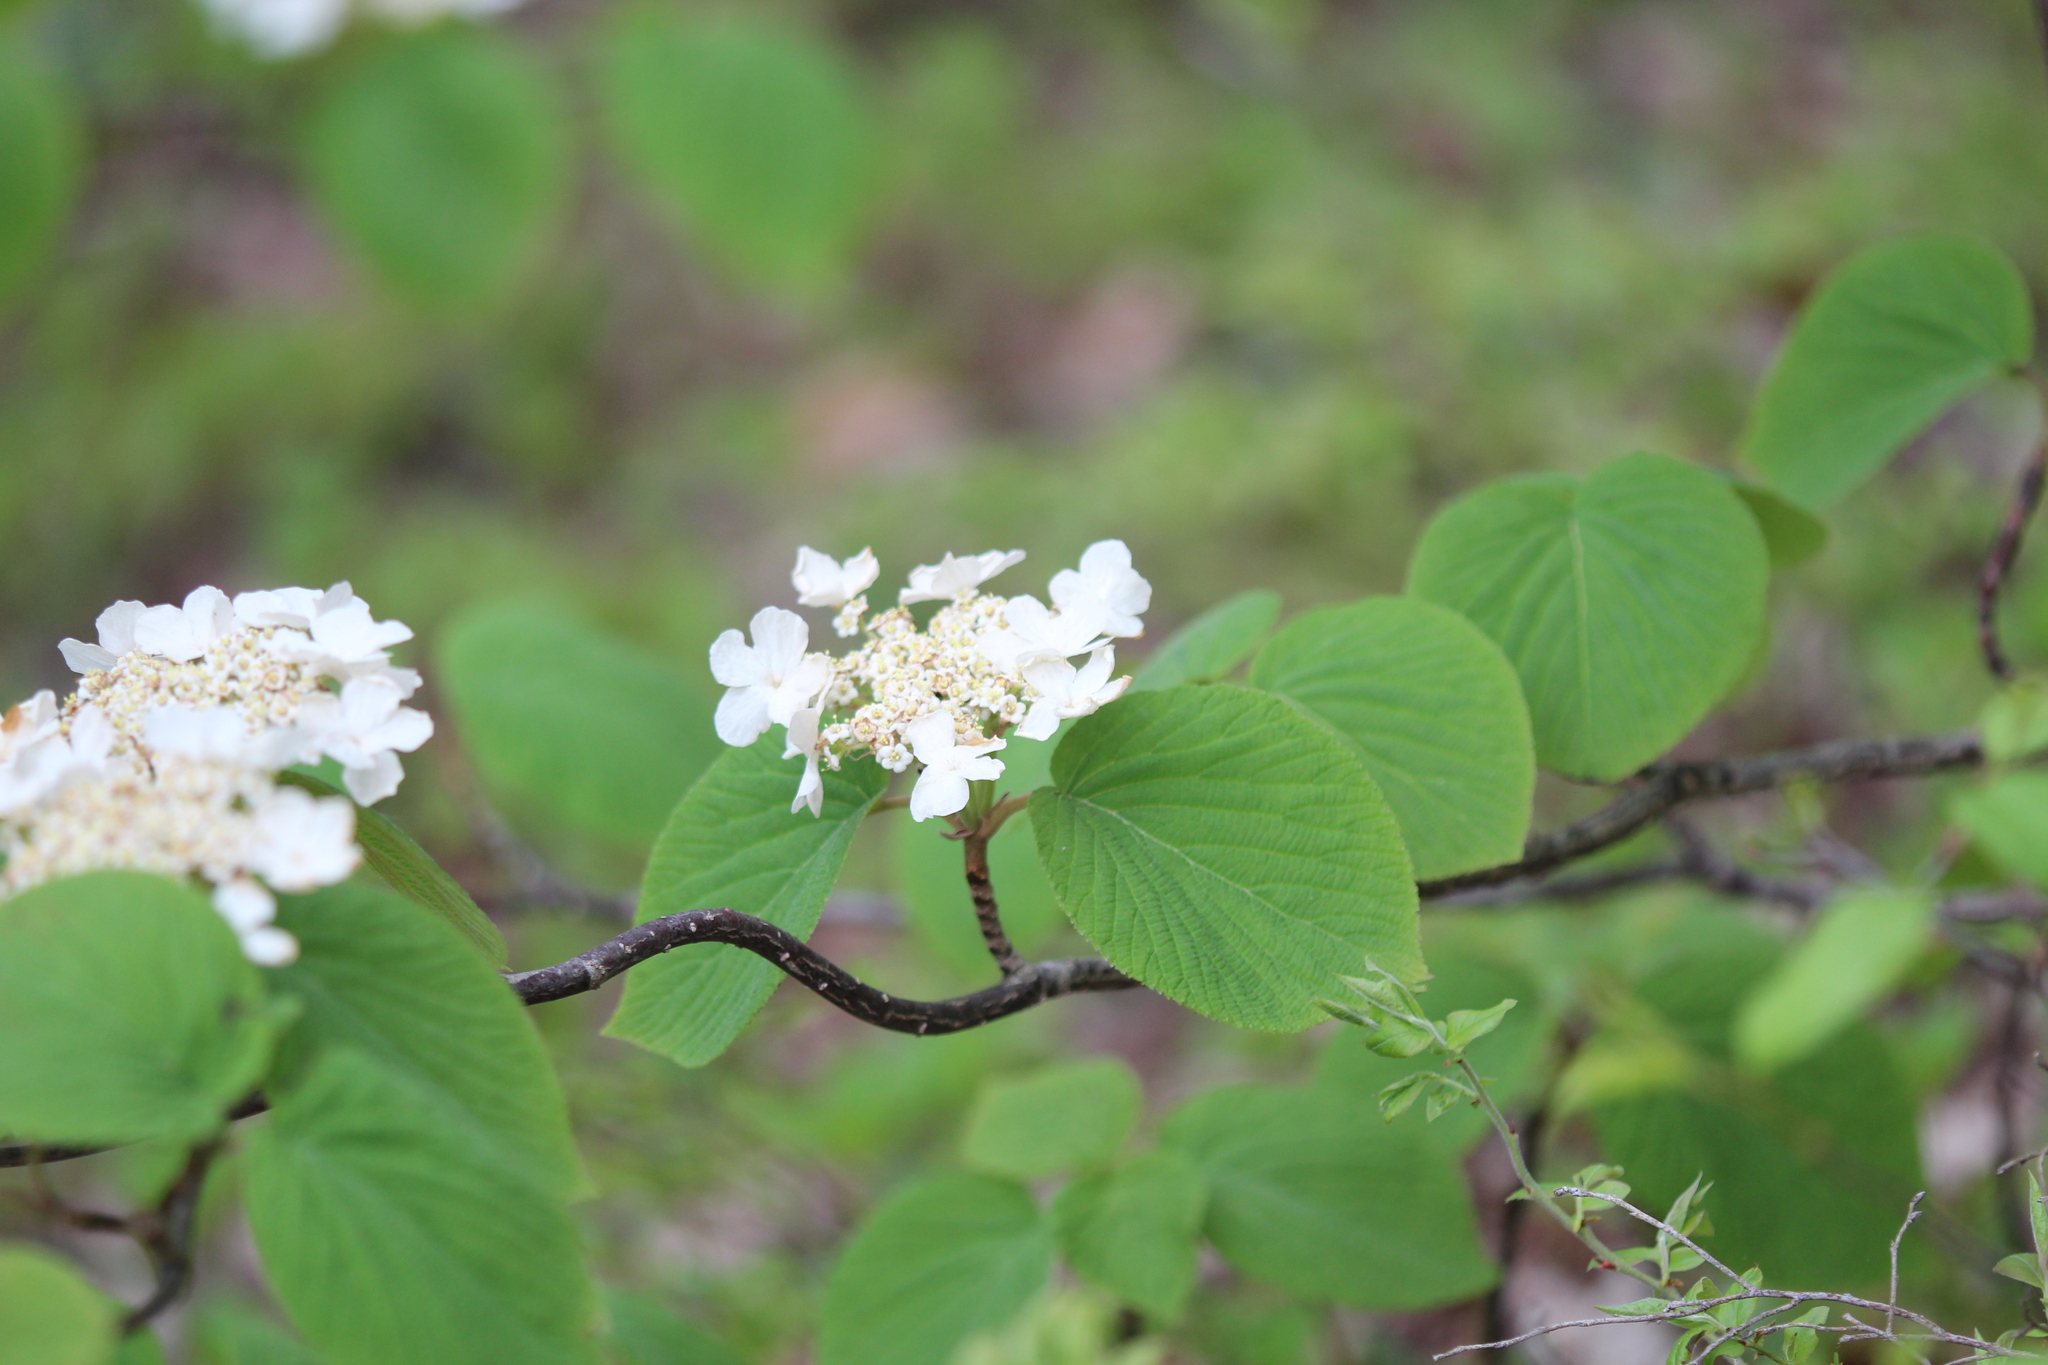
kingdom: Plantae
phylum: Tracheophyta
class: Magnoliopsida
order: Dipsacales
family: Viburnaceae
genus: Viburnum
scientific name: Viburnum lantanoides
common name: Hobblebush
